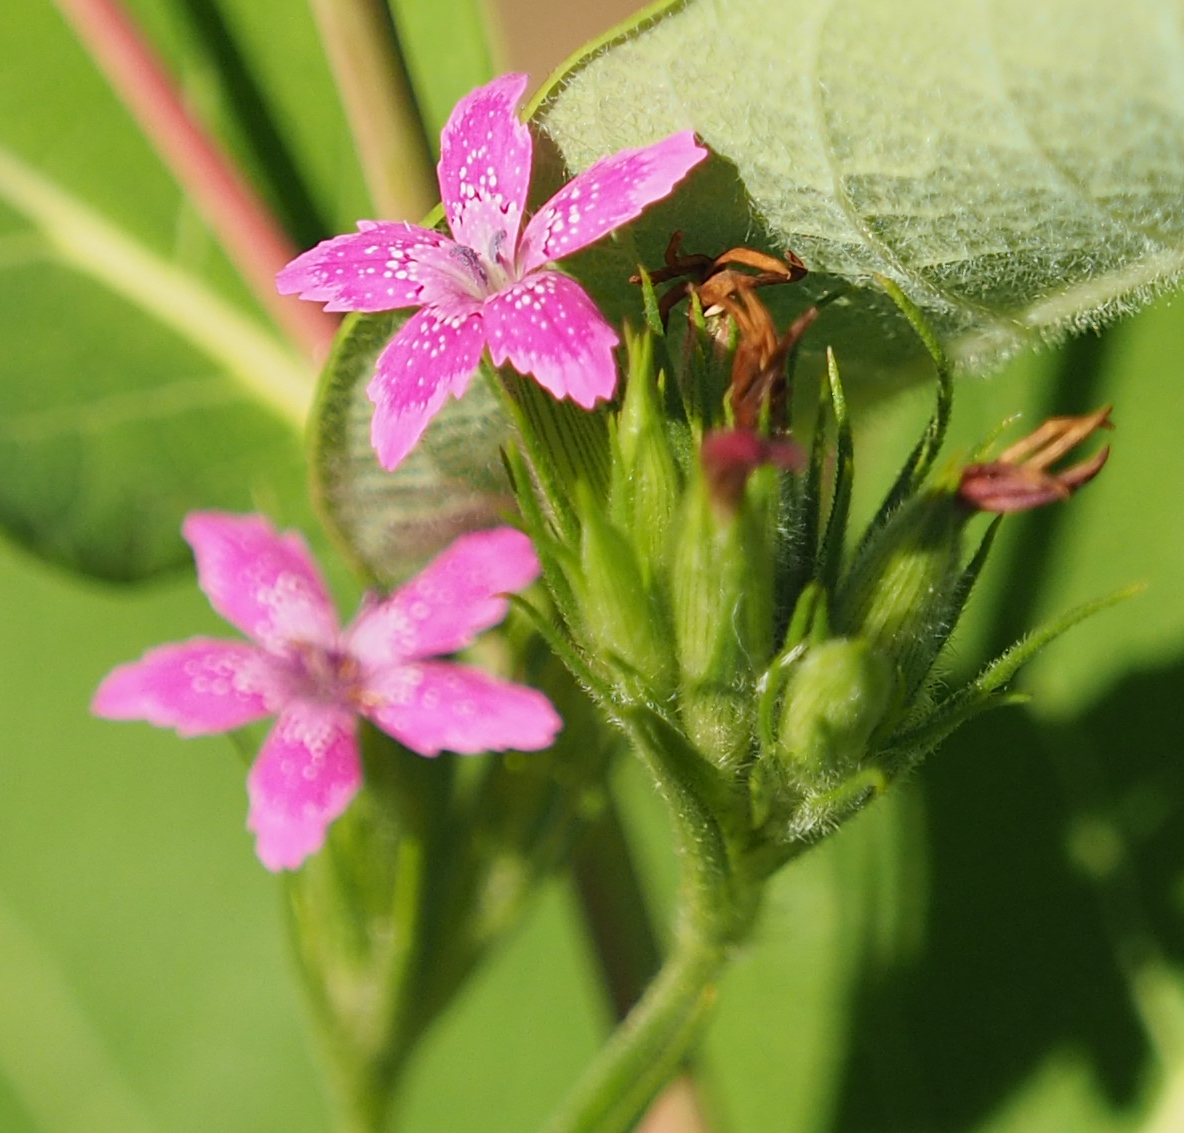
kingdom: Plantae
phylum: Tracheophyta
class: Magnoliopsida
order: Caryophyllales
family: Caryophyllaceae
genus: Dianthus
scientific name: Dianthus armeria
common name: Deptford pink
